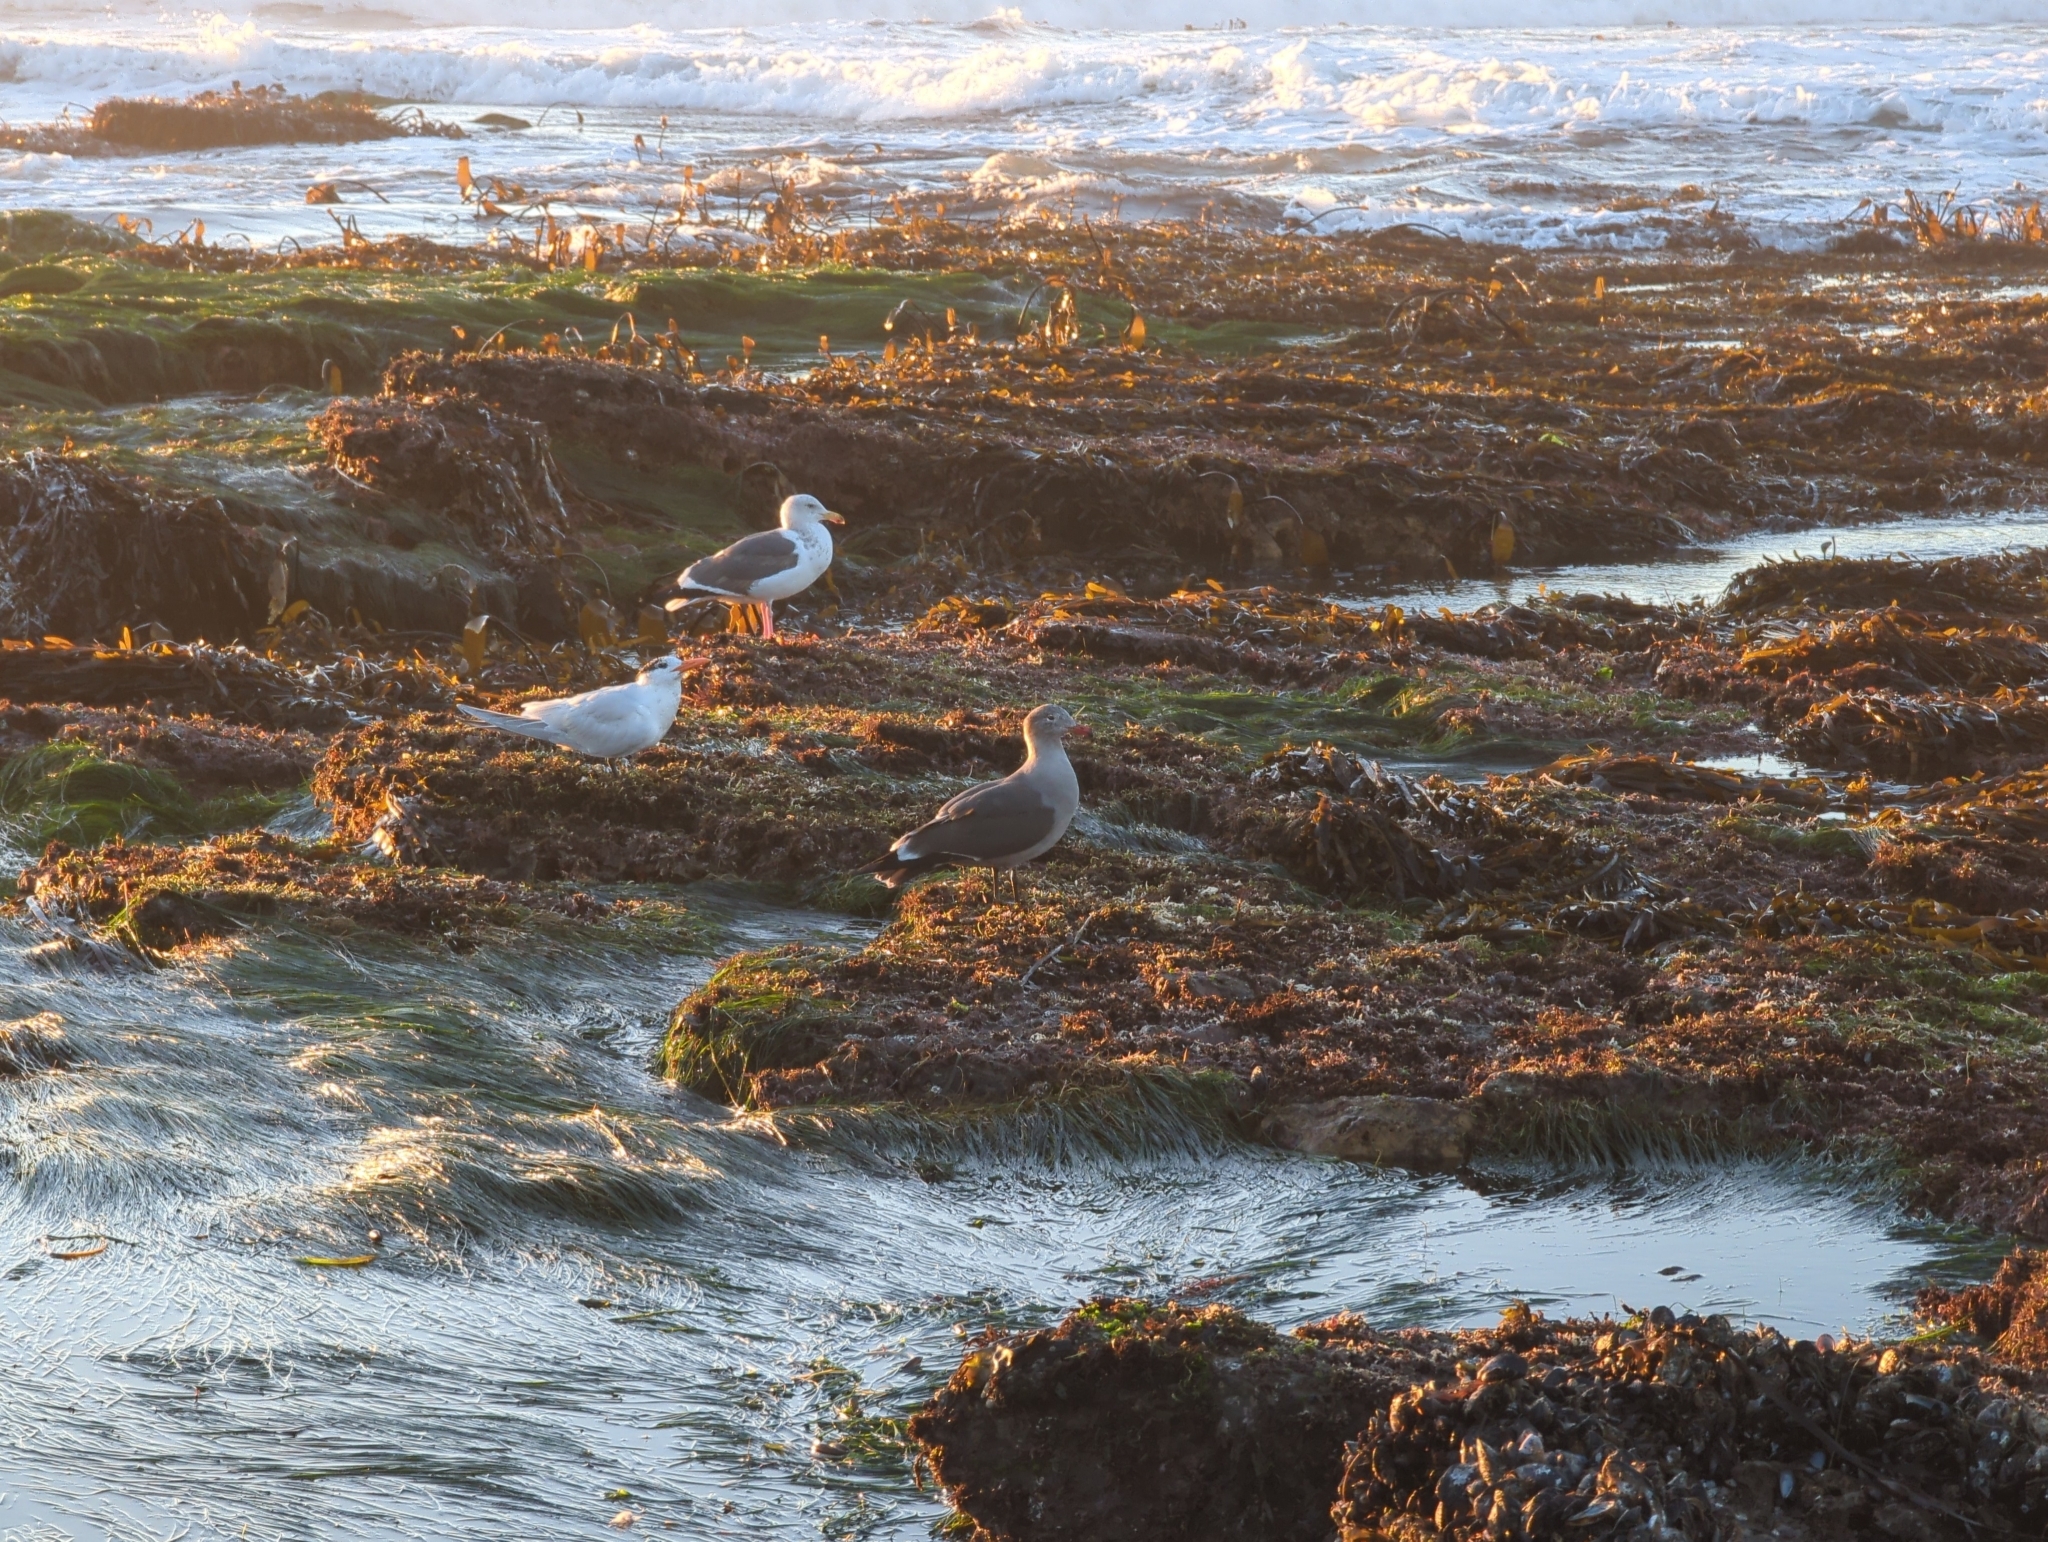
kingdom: Animalia
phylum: Chordata
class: Aves
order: Charadriiformes
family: Laridae
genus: Larus
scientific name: Larus heermanni
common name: Heermann's gull
